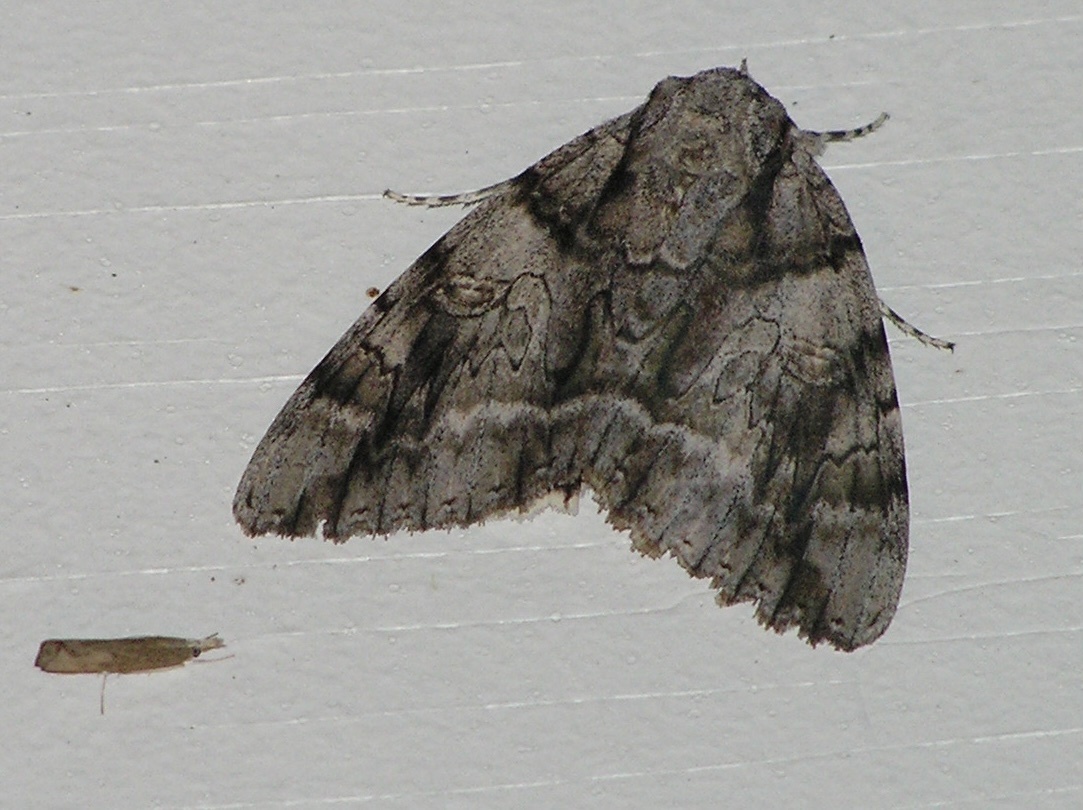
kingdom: Animalia
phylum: Arthropoda
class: Insecta
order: Lepidoptera
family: Erebidae
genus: Catocala
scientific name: Catocala vidua
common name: The widow
